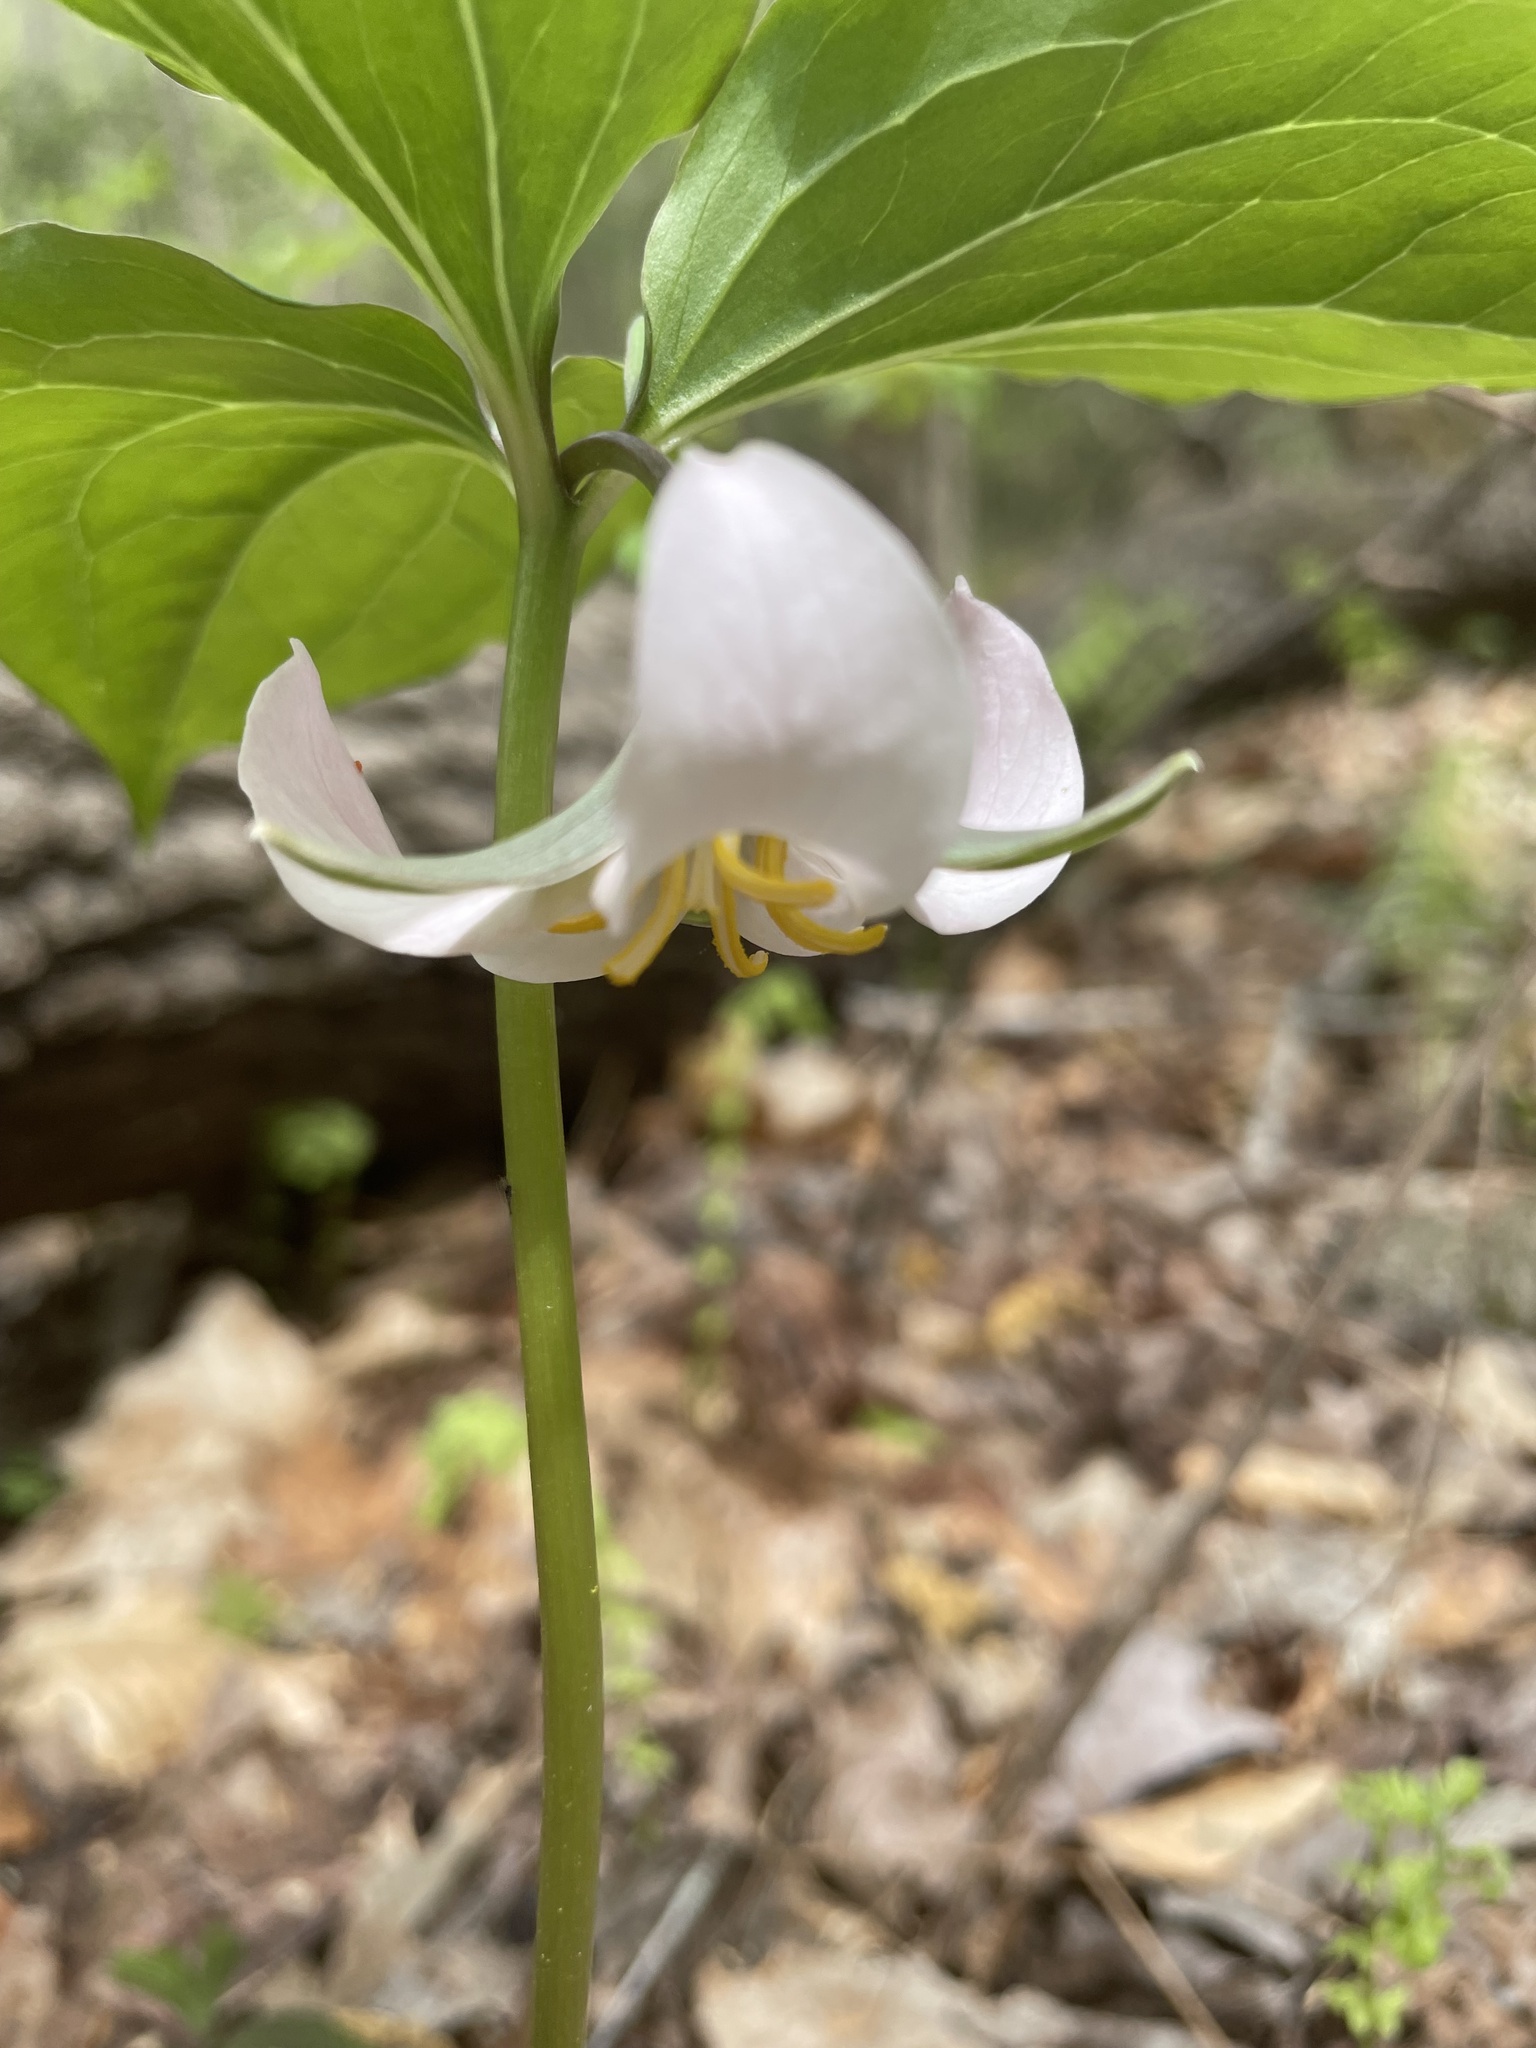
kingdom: Plantae
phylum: Tracheophyta
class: Liliopsida
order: Liliales
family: Melanthiaceae
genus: Trillium
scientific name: Trillium catesbaei
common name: Bashful trillium
